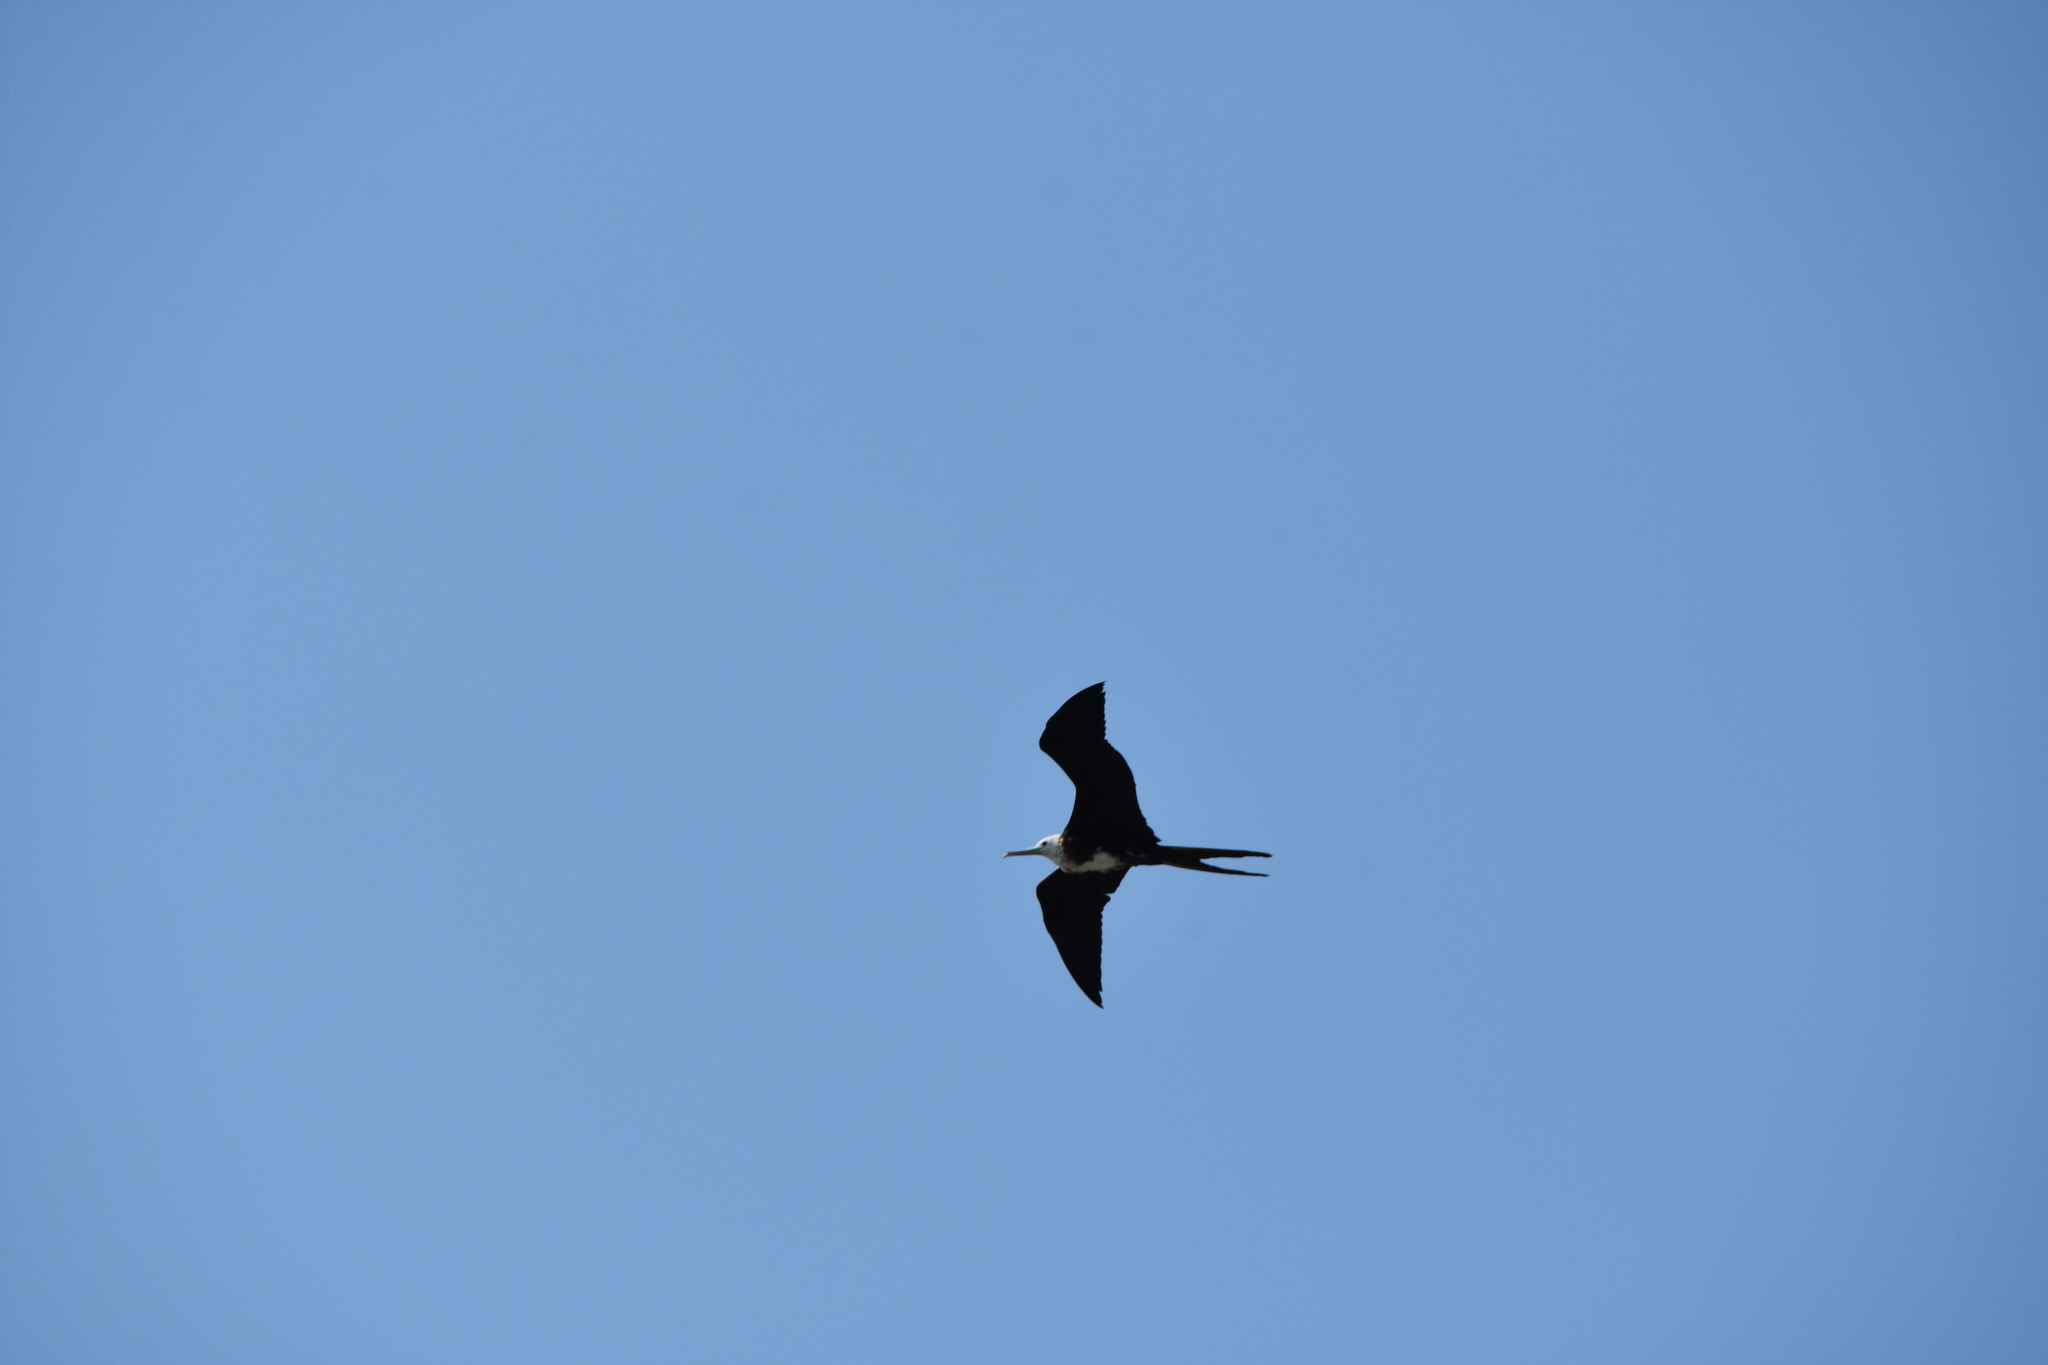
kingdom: Animalia
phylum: Chordata
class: Aves
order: Suliformes
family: Fregatidae
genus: Fregata
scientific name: Fregata magnificens
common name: Magnificent frigatebird
